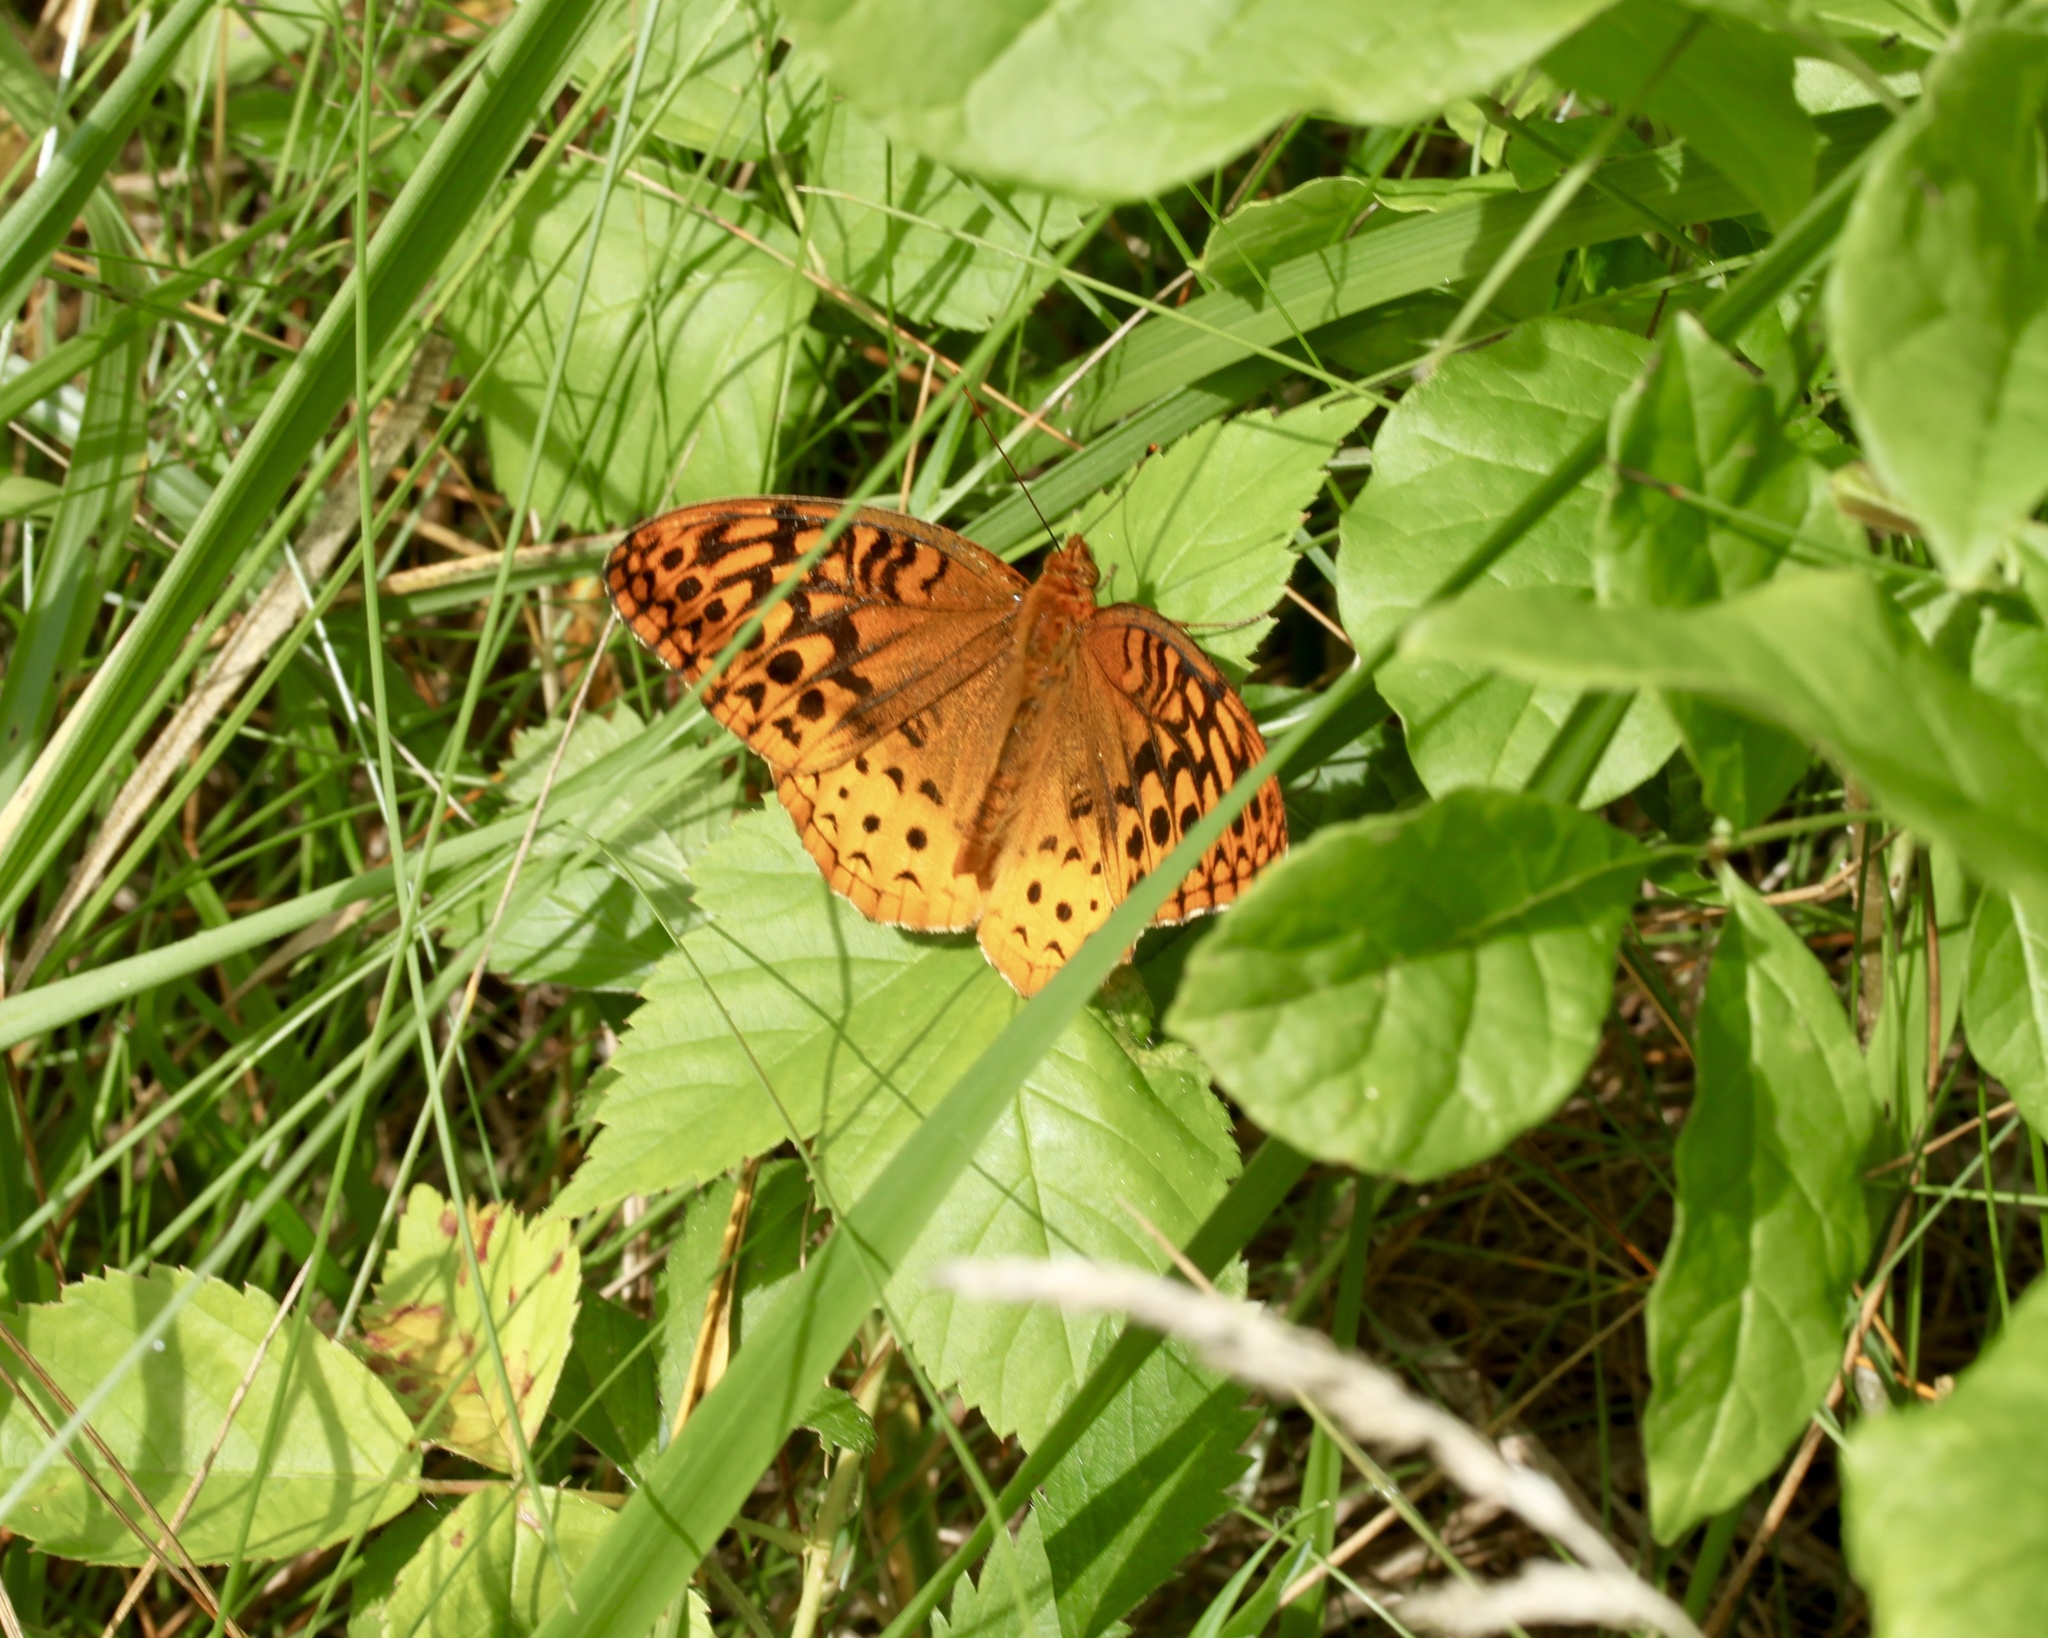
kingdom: Animalia
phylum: Arthropoda
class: Insecta
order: Lepidoptera
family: Nymphalidae
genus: Speyeria
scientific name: Speyeria cybele
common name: Great spangled fritillary
